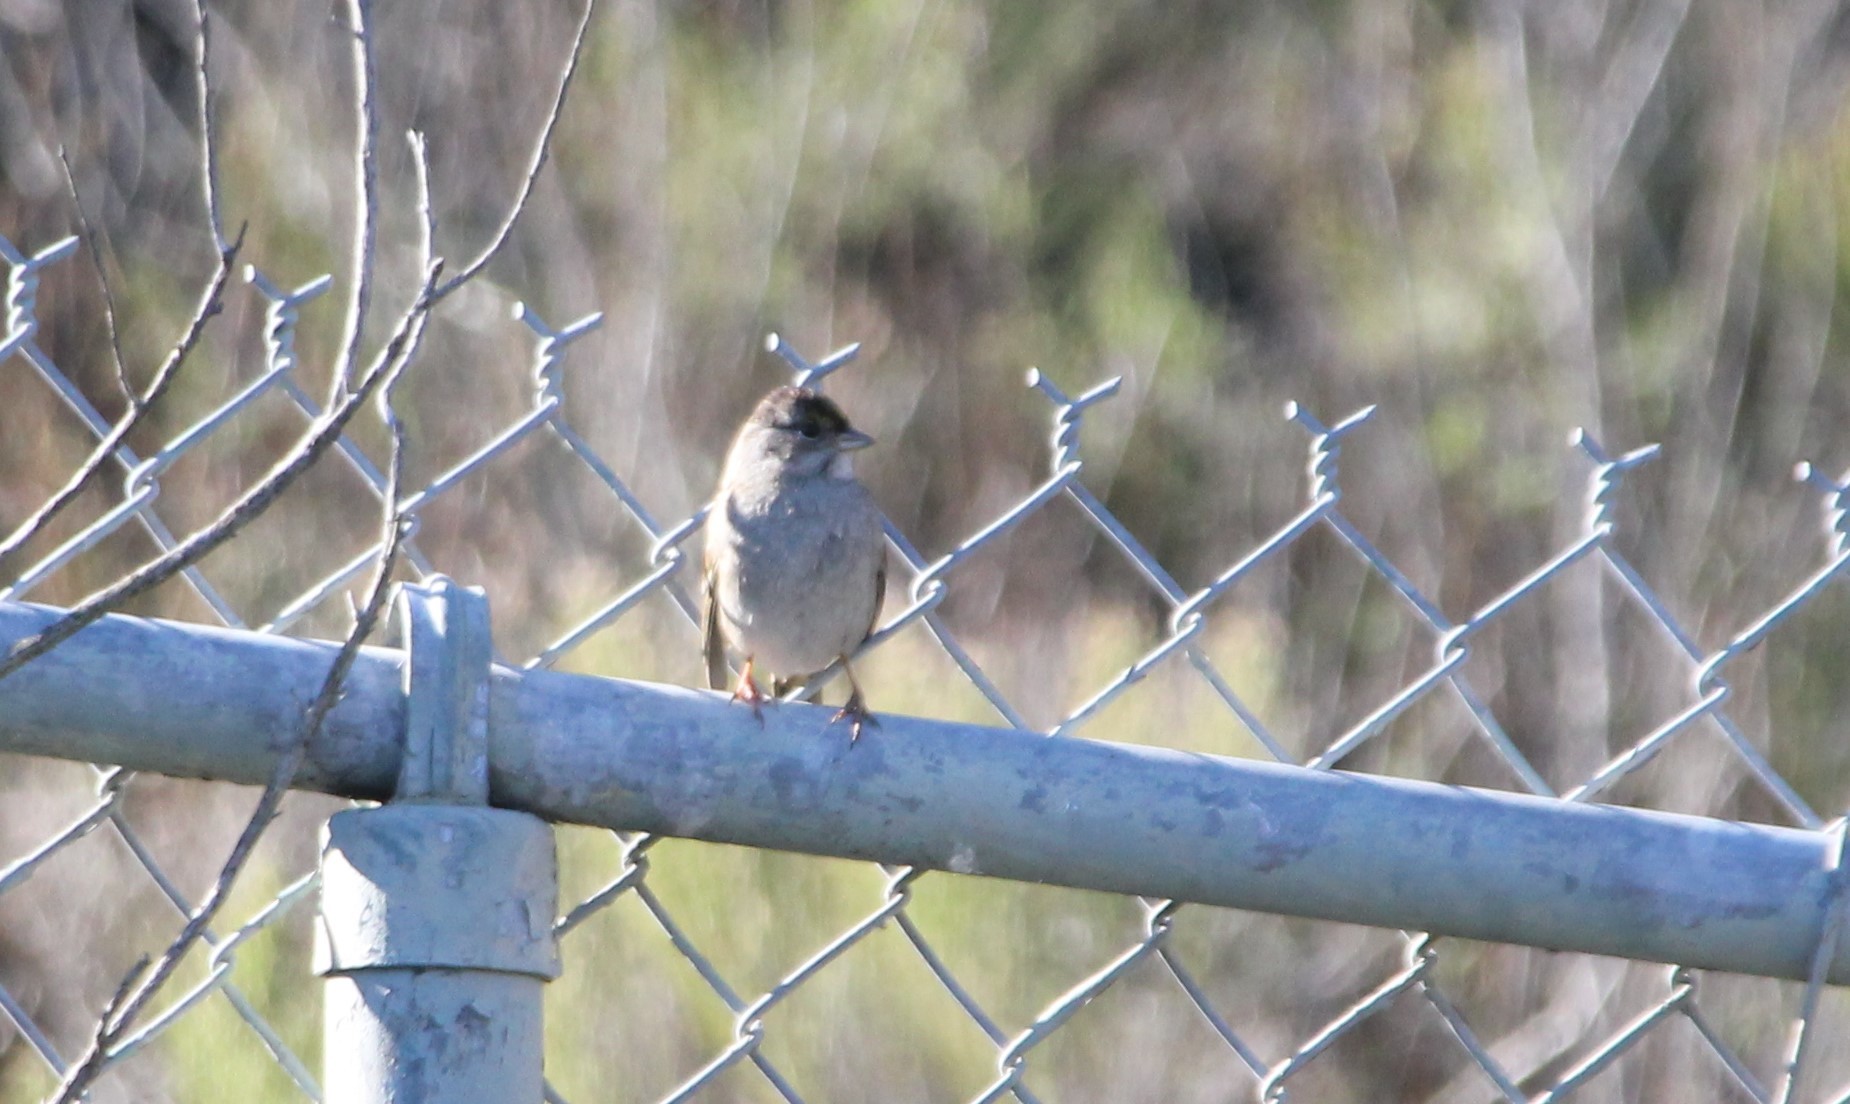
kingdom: Animalia
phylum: Chordata
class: Aves
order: Passeriformes
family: Passerellidae
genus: Zonotrichia
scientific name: Zonotrichia atricapilla
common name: Golden-crowned sparrow
